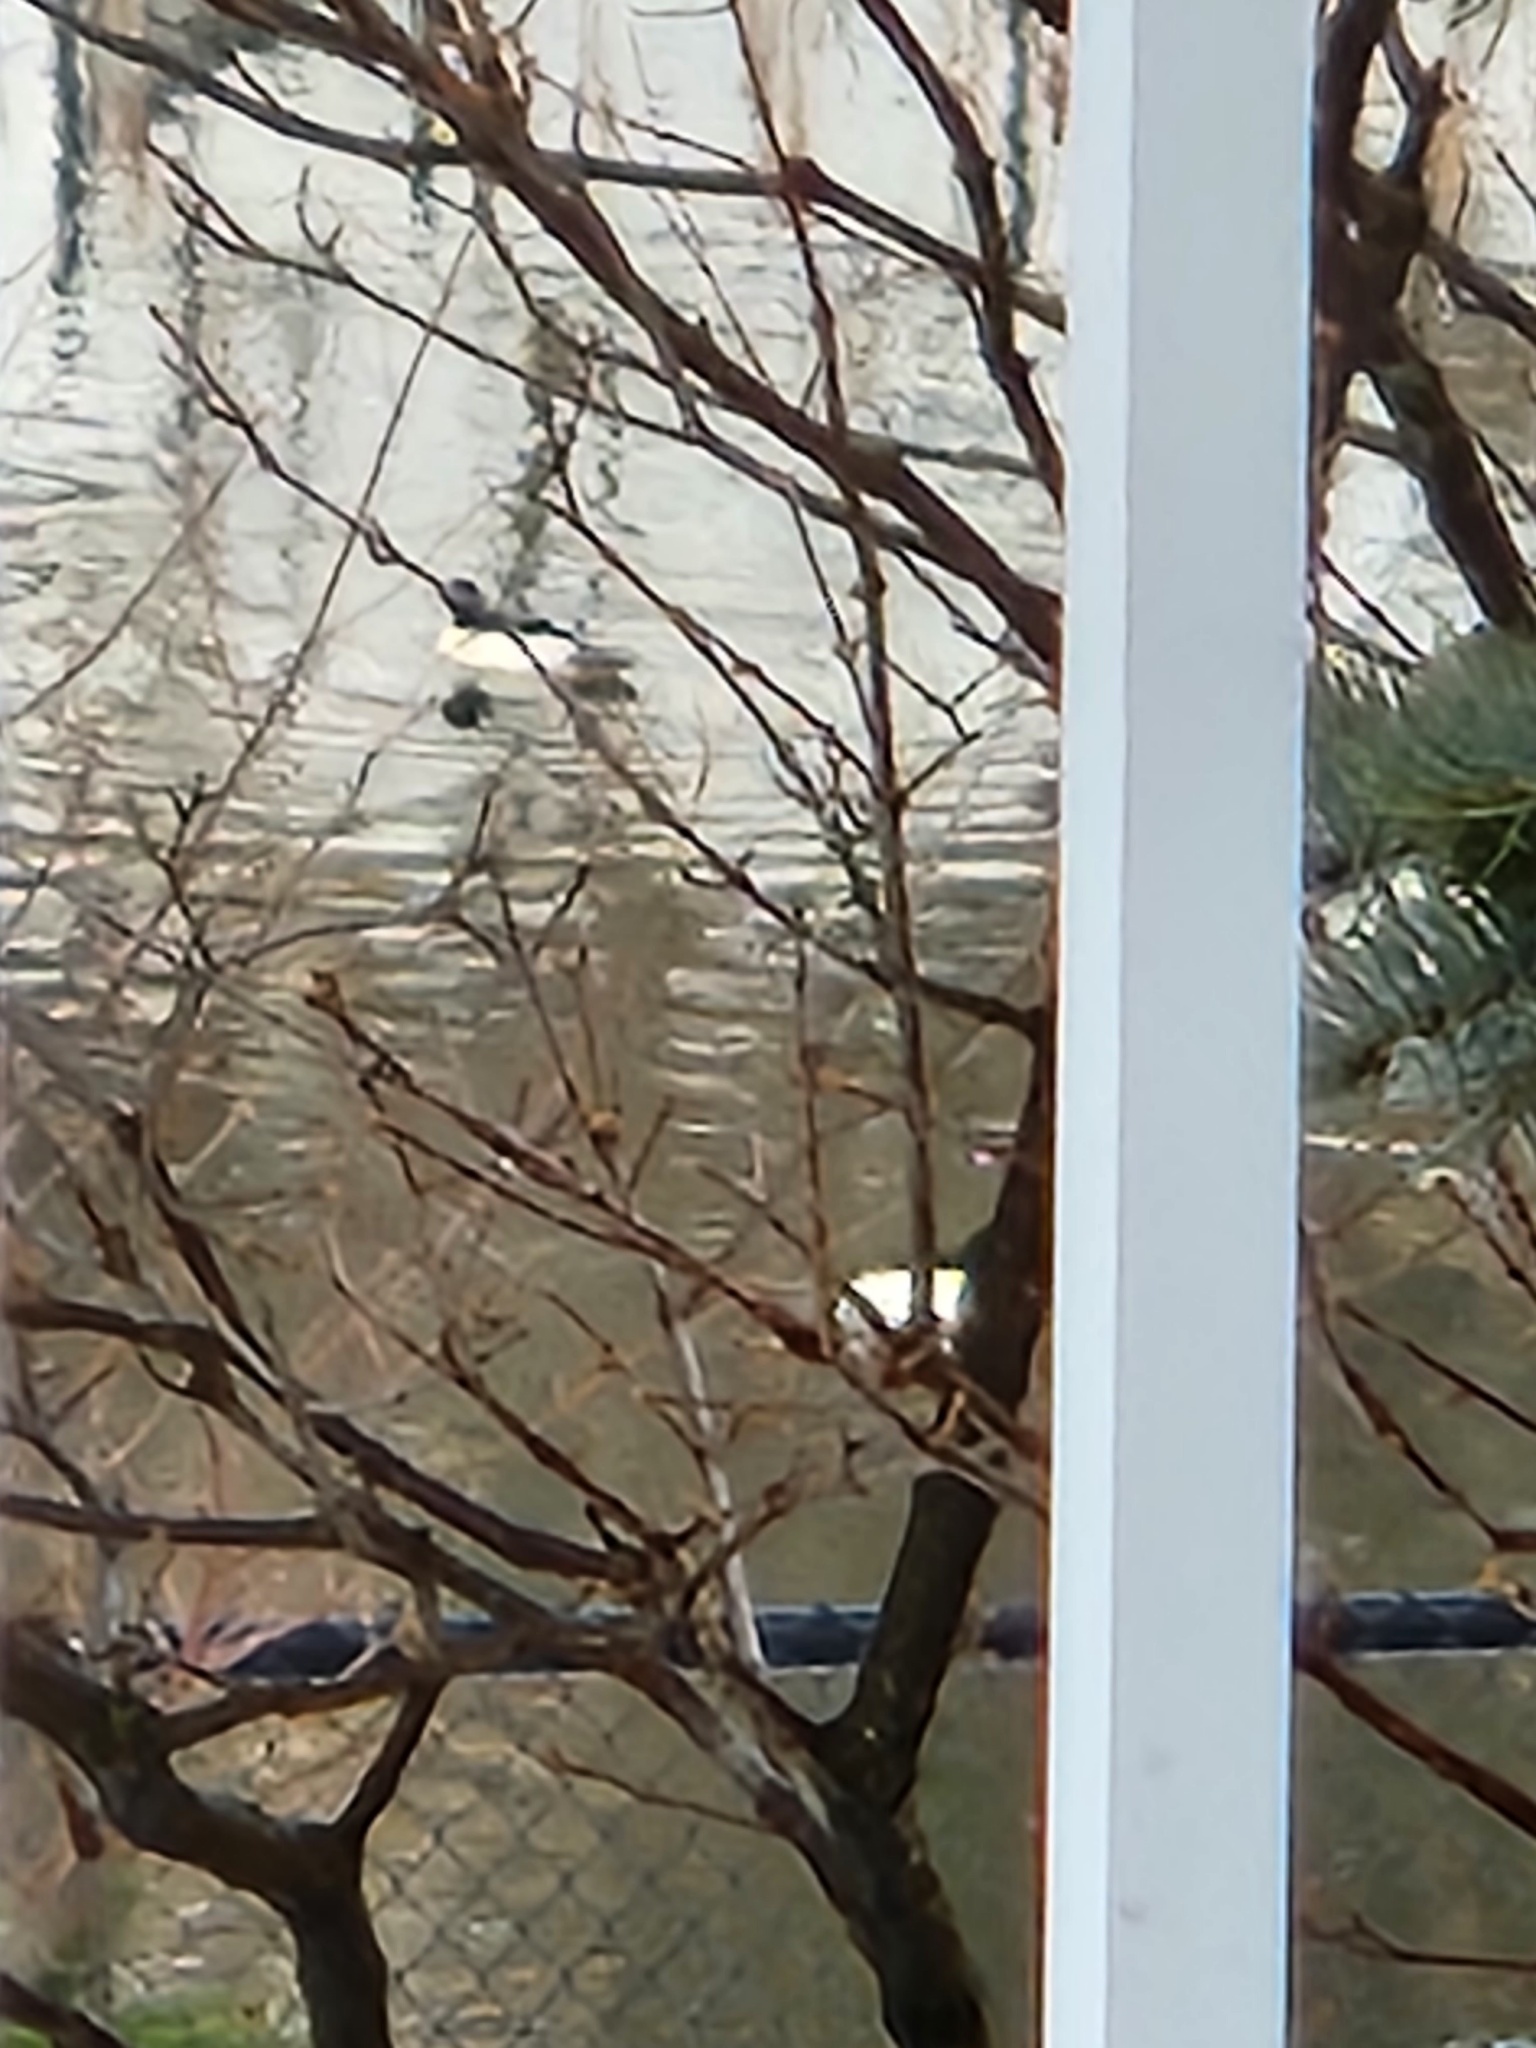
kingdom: Animalia
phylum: Chordata
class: Aves
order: Anseriformes
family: Anatidae
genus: Mergus
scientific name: Mergus merganser
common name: Common merganser
